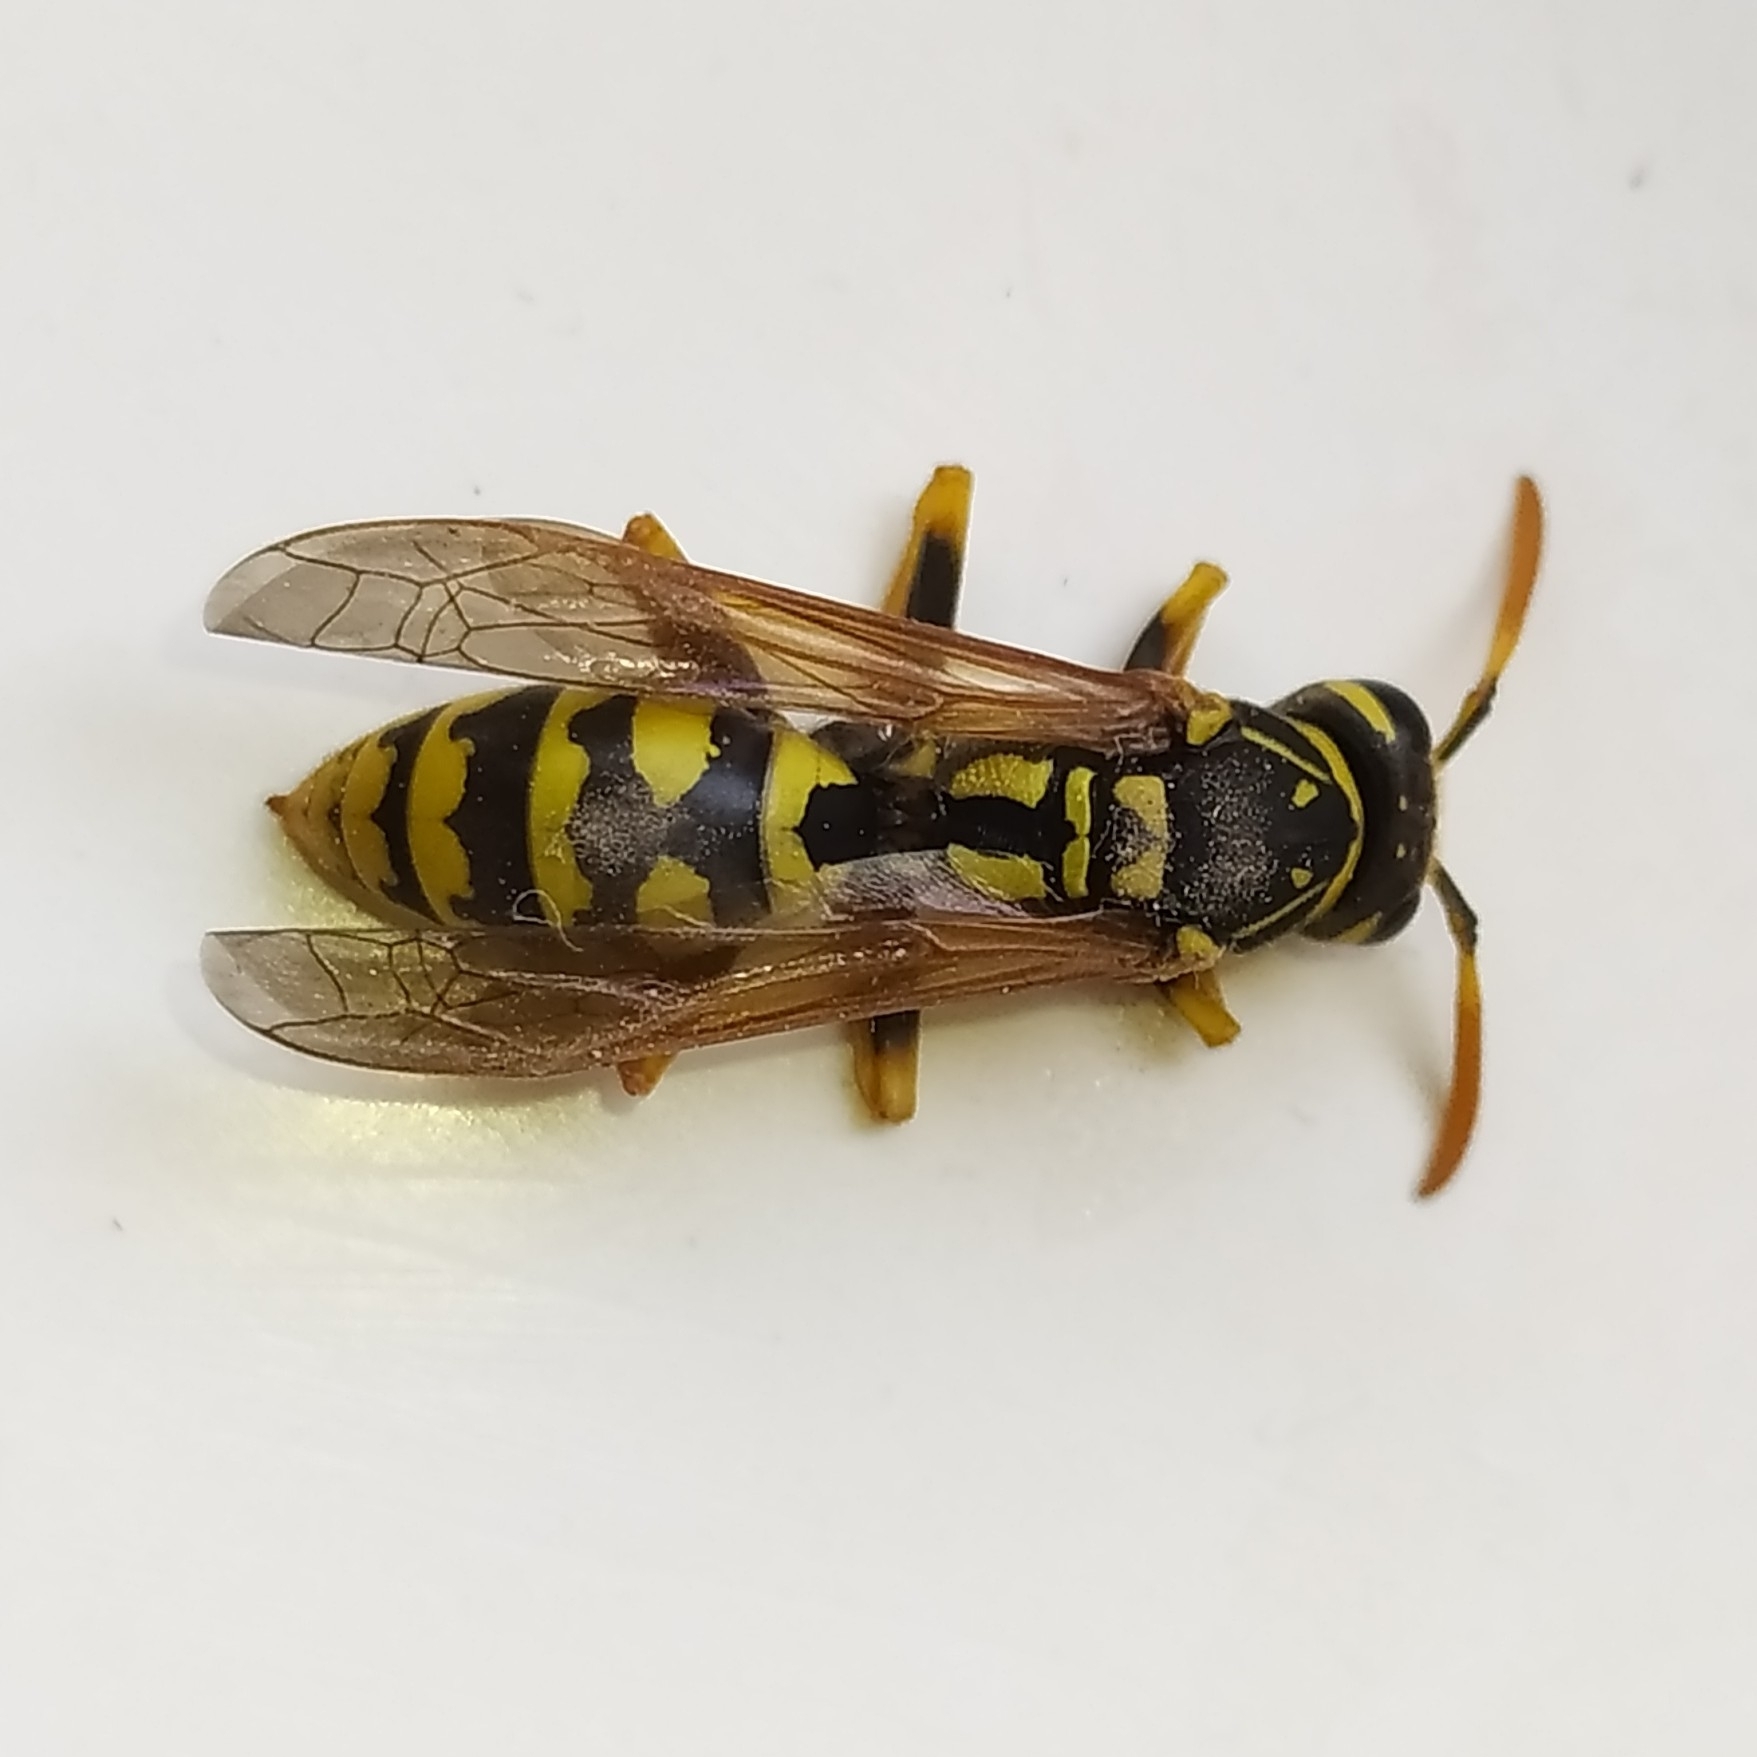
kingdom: Animalia
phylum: Arthropoda
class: Insecta
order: Hymenoptera
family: Eumenidae
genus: Polistes
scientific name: Polistes dominula
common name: Paper wasp
